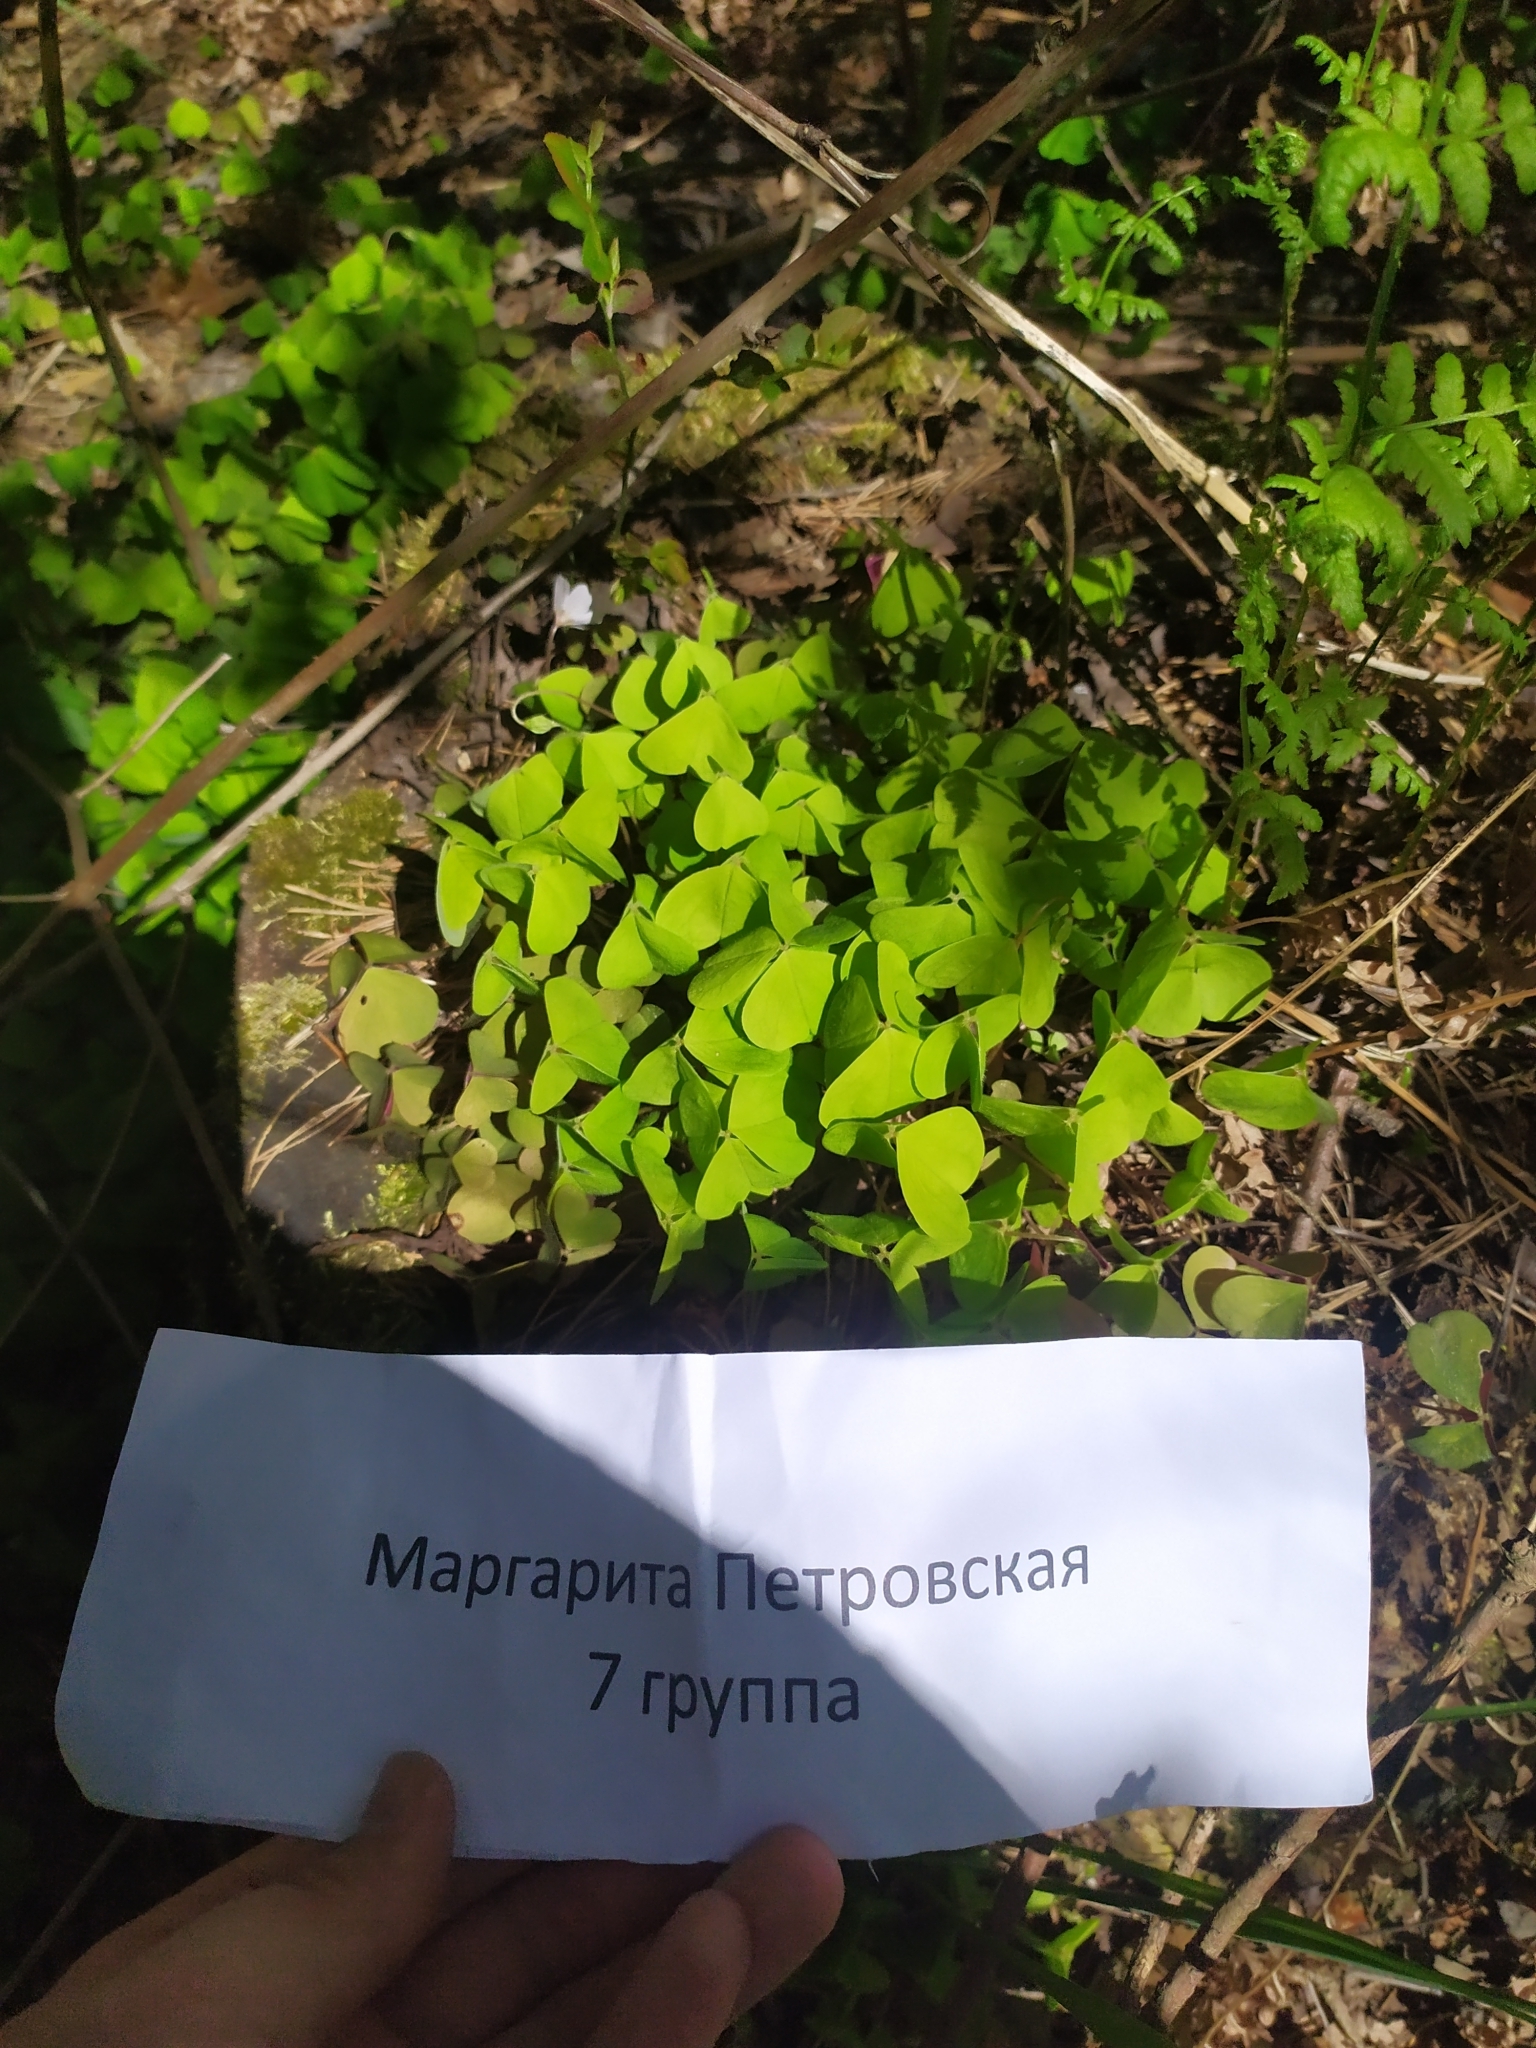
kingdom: Plantae
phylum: Tracheophyta
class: Magnoliopsida
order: Oxalidales
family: Oxalidaceae
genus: Oxalis
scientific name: Oxalis acetosella
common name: Wood-sorrel
